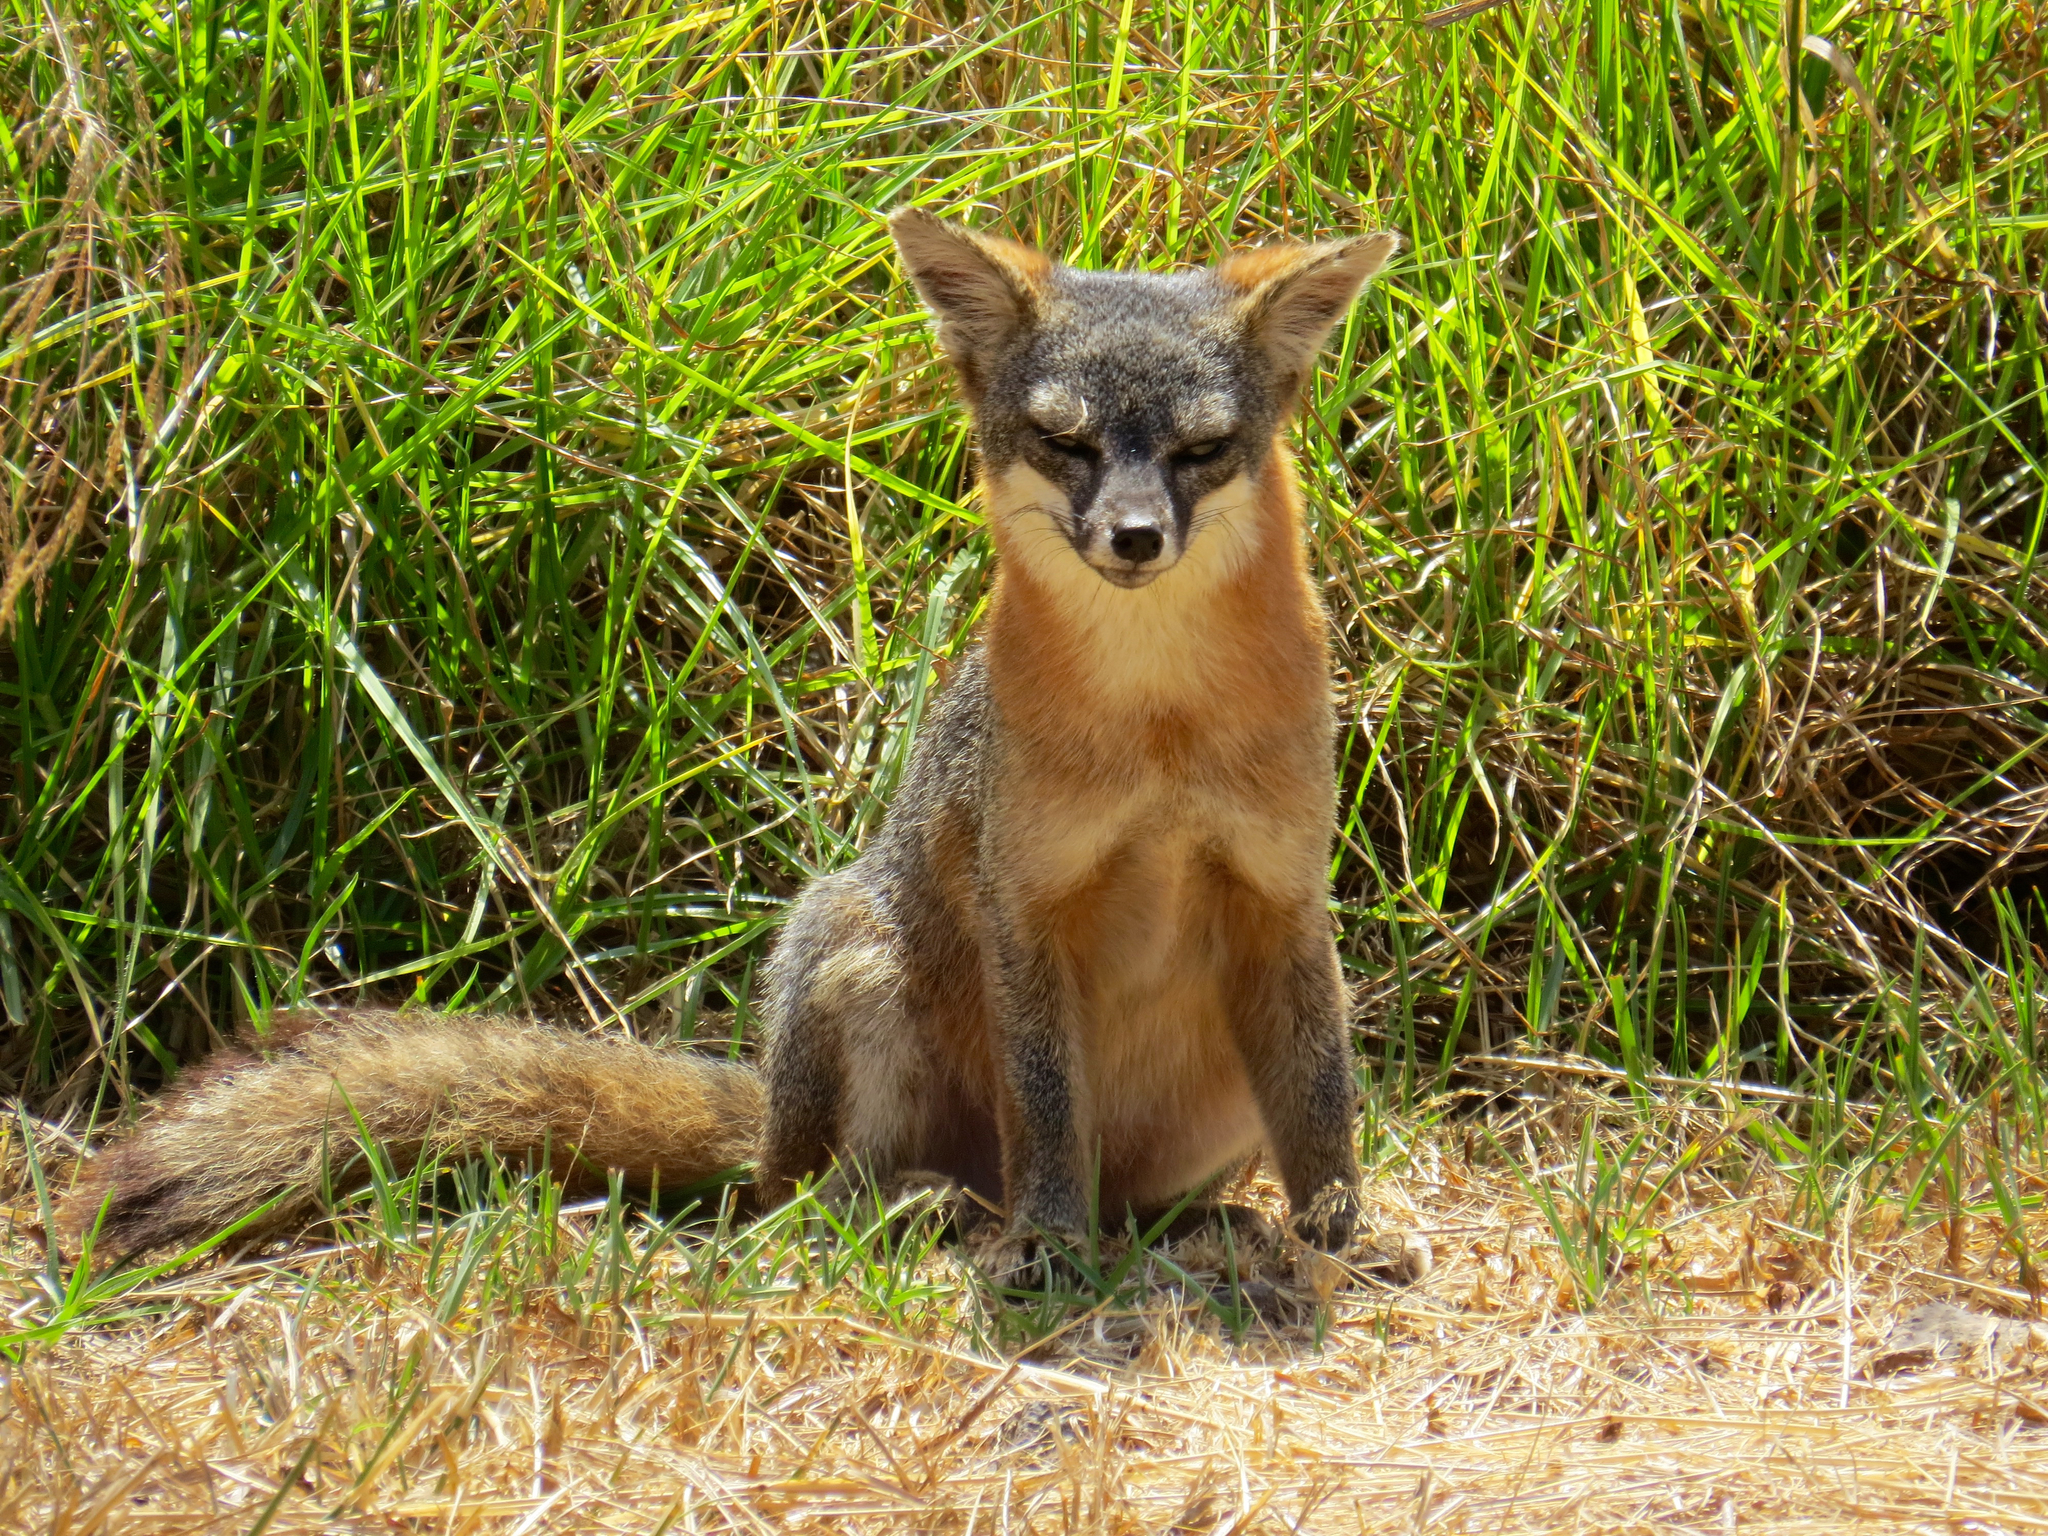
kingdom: Animalia
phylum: Chordata
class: Mammalia
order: Carnivora
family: Canidae
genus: Urocyon
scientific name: Urocyon littoralis
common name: Island gray fox
